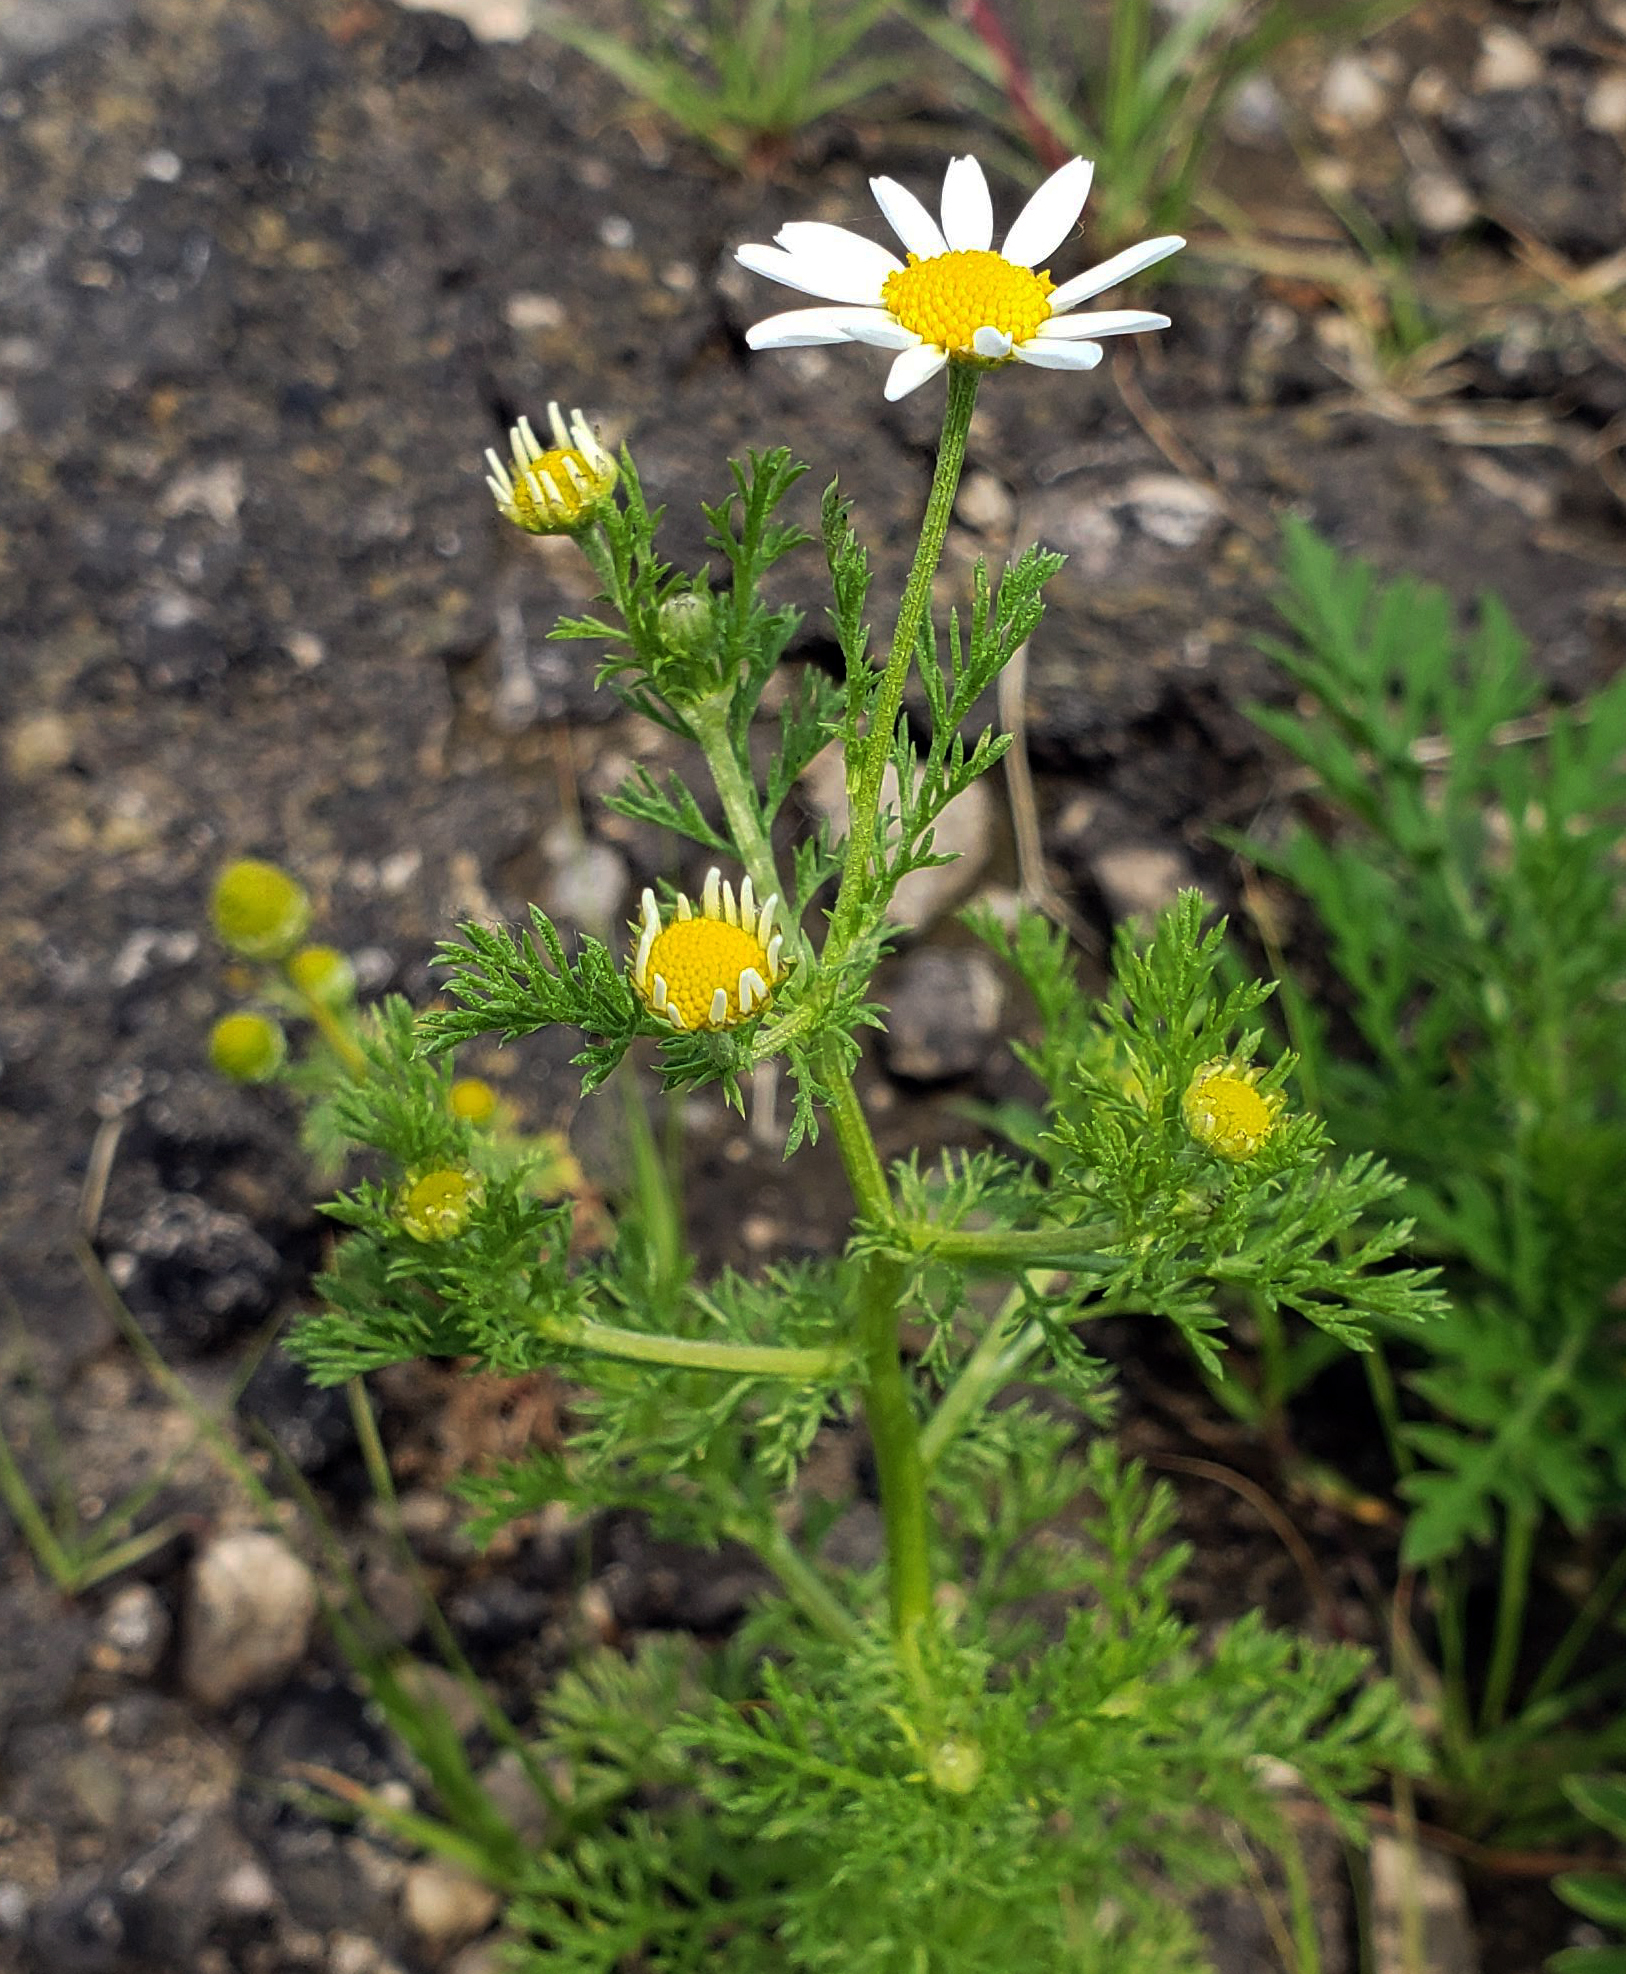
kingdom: Plantae
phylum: Tracheophyta
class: Magnoliopsida
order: Asterales
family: Asteraceae
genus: Anthemis
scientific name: Anthemis cotula
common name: Stinking chamomile
